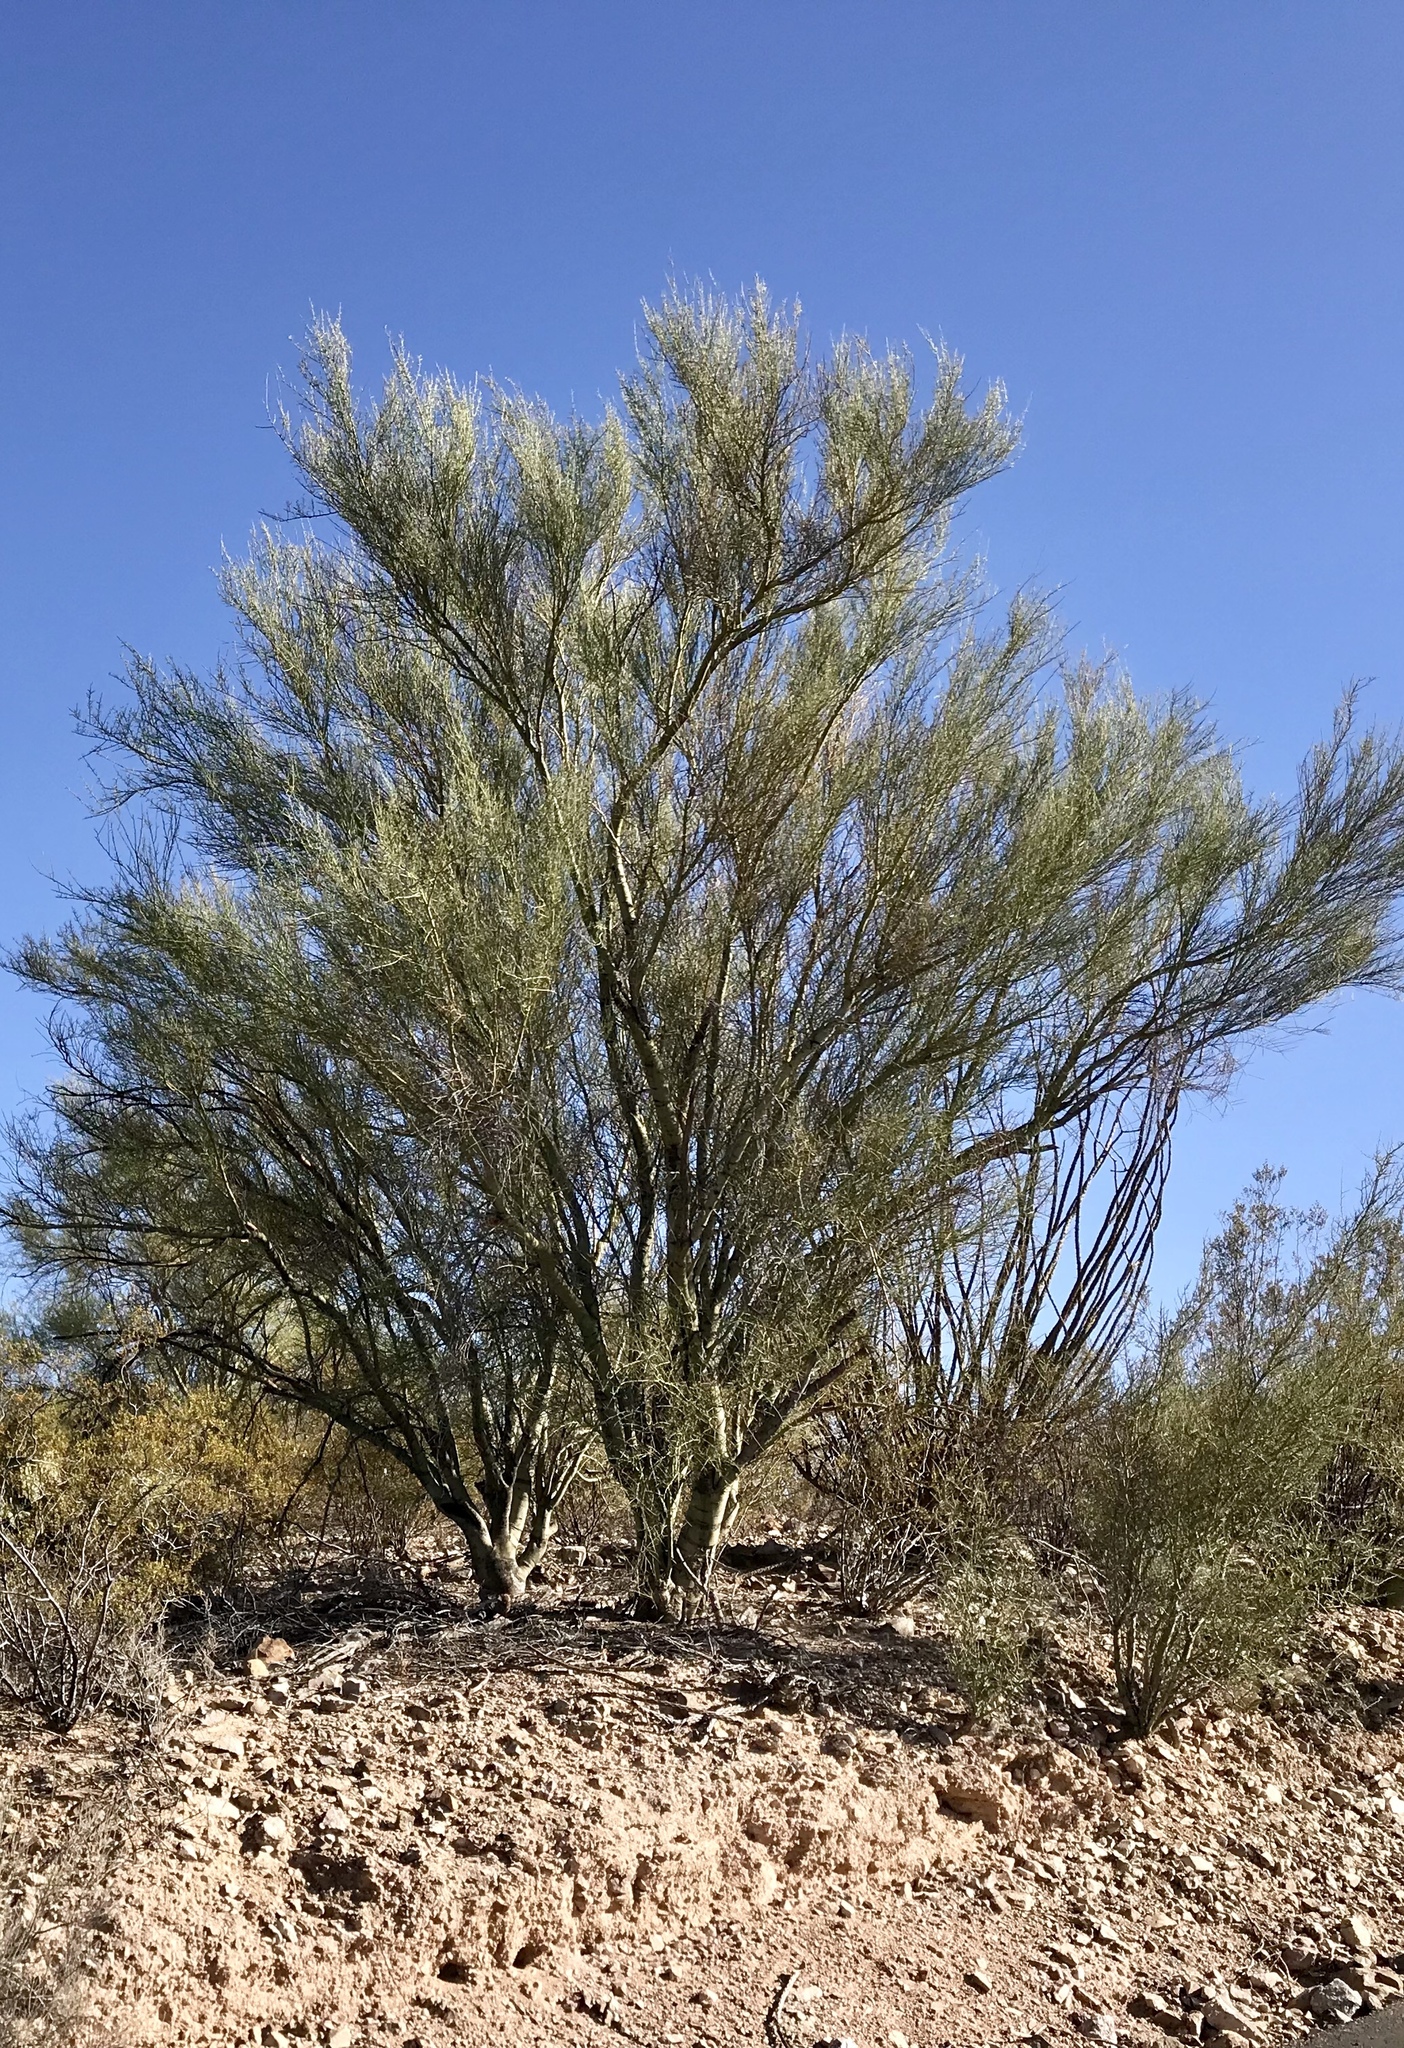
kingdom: Plantae
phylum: Tracheophyta
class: Magnoliopsida
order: Fabales
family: Fabaceae
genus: Parkinsonia
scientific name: Parkinsonia florida
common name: Blue paloverde
